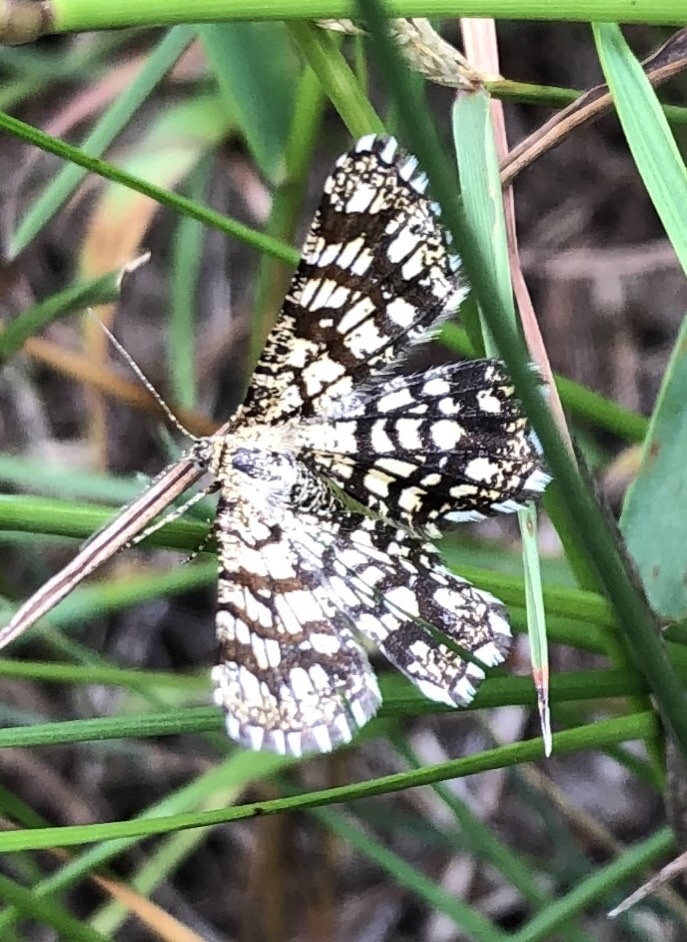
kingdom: Animalia
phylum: Arthropoda
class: Insecta
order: Lepidoptera
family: Geometridae
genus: Chiasmia
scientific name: Chiasmia clathrata
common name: Latticed heath
